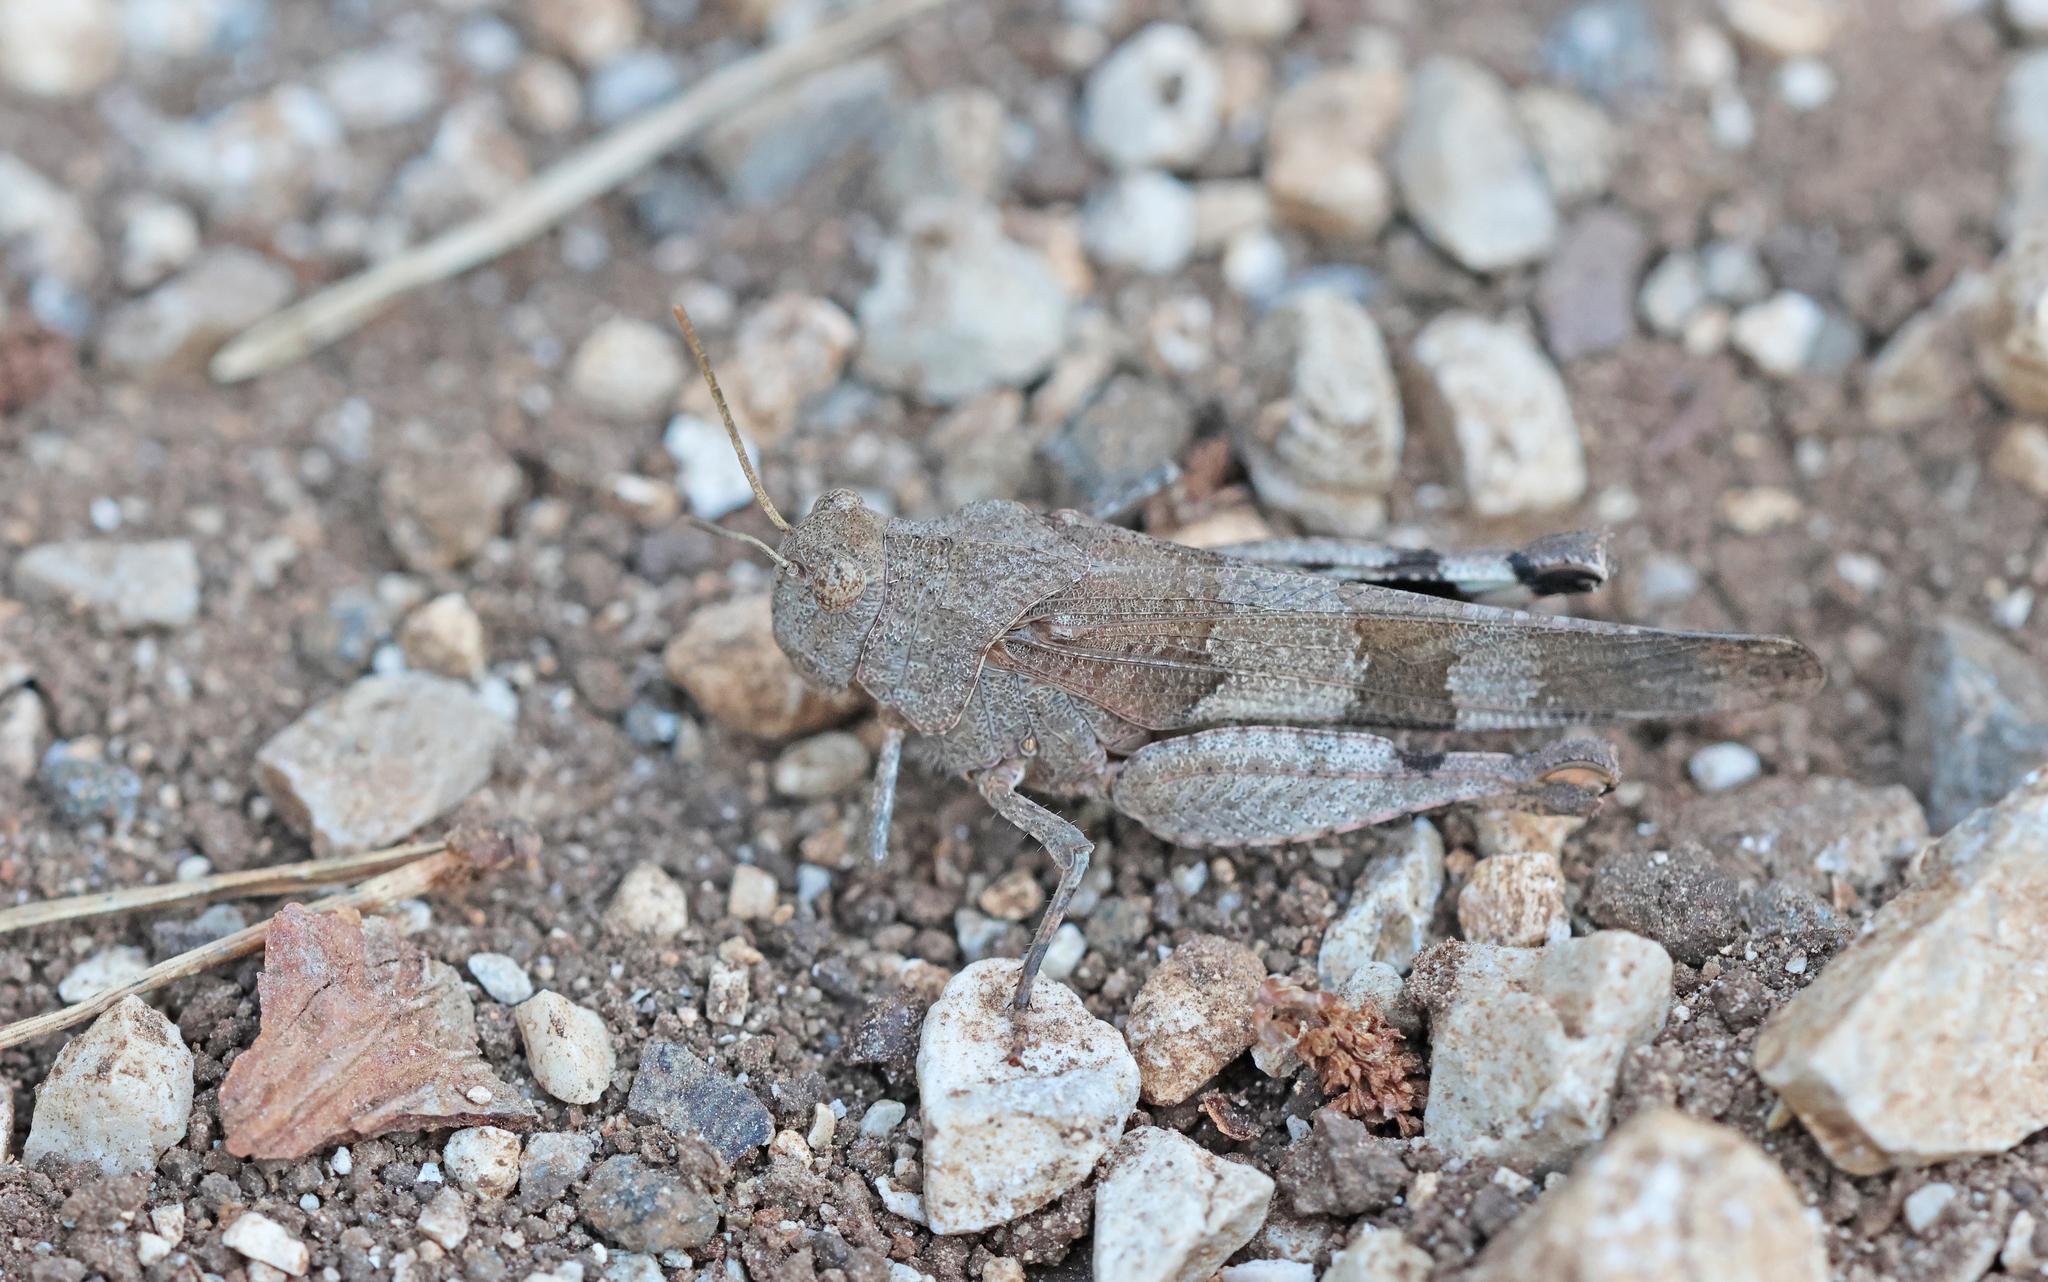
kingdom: Animalia
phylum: Arthropoda
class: Insecta
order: Orthoptera
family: Acrididae
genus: Oedipoda
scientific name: Oedipoda caerulescens
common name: Blue-winged grasshopper
